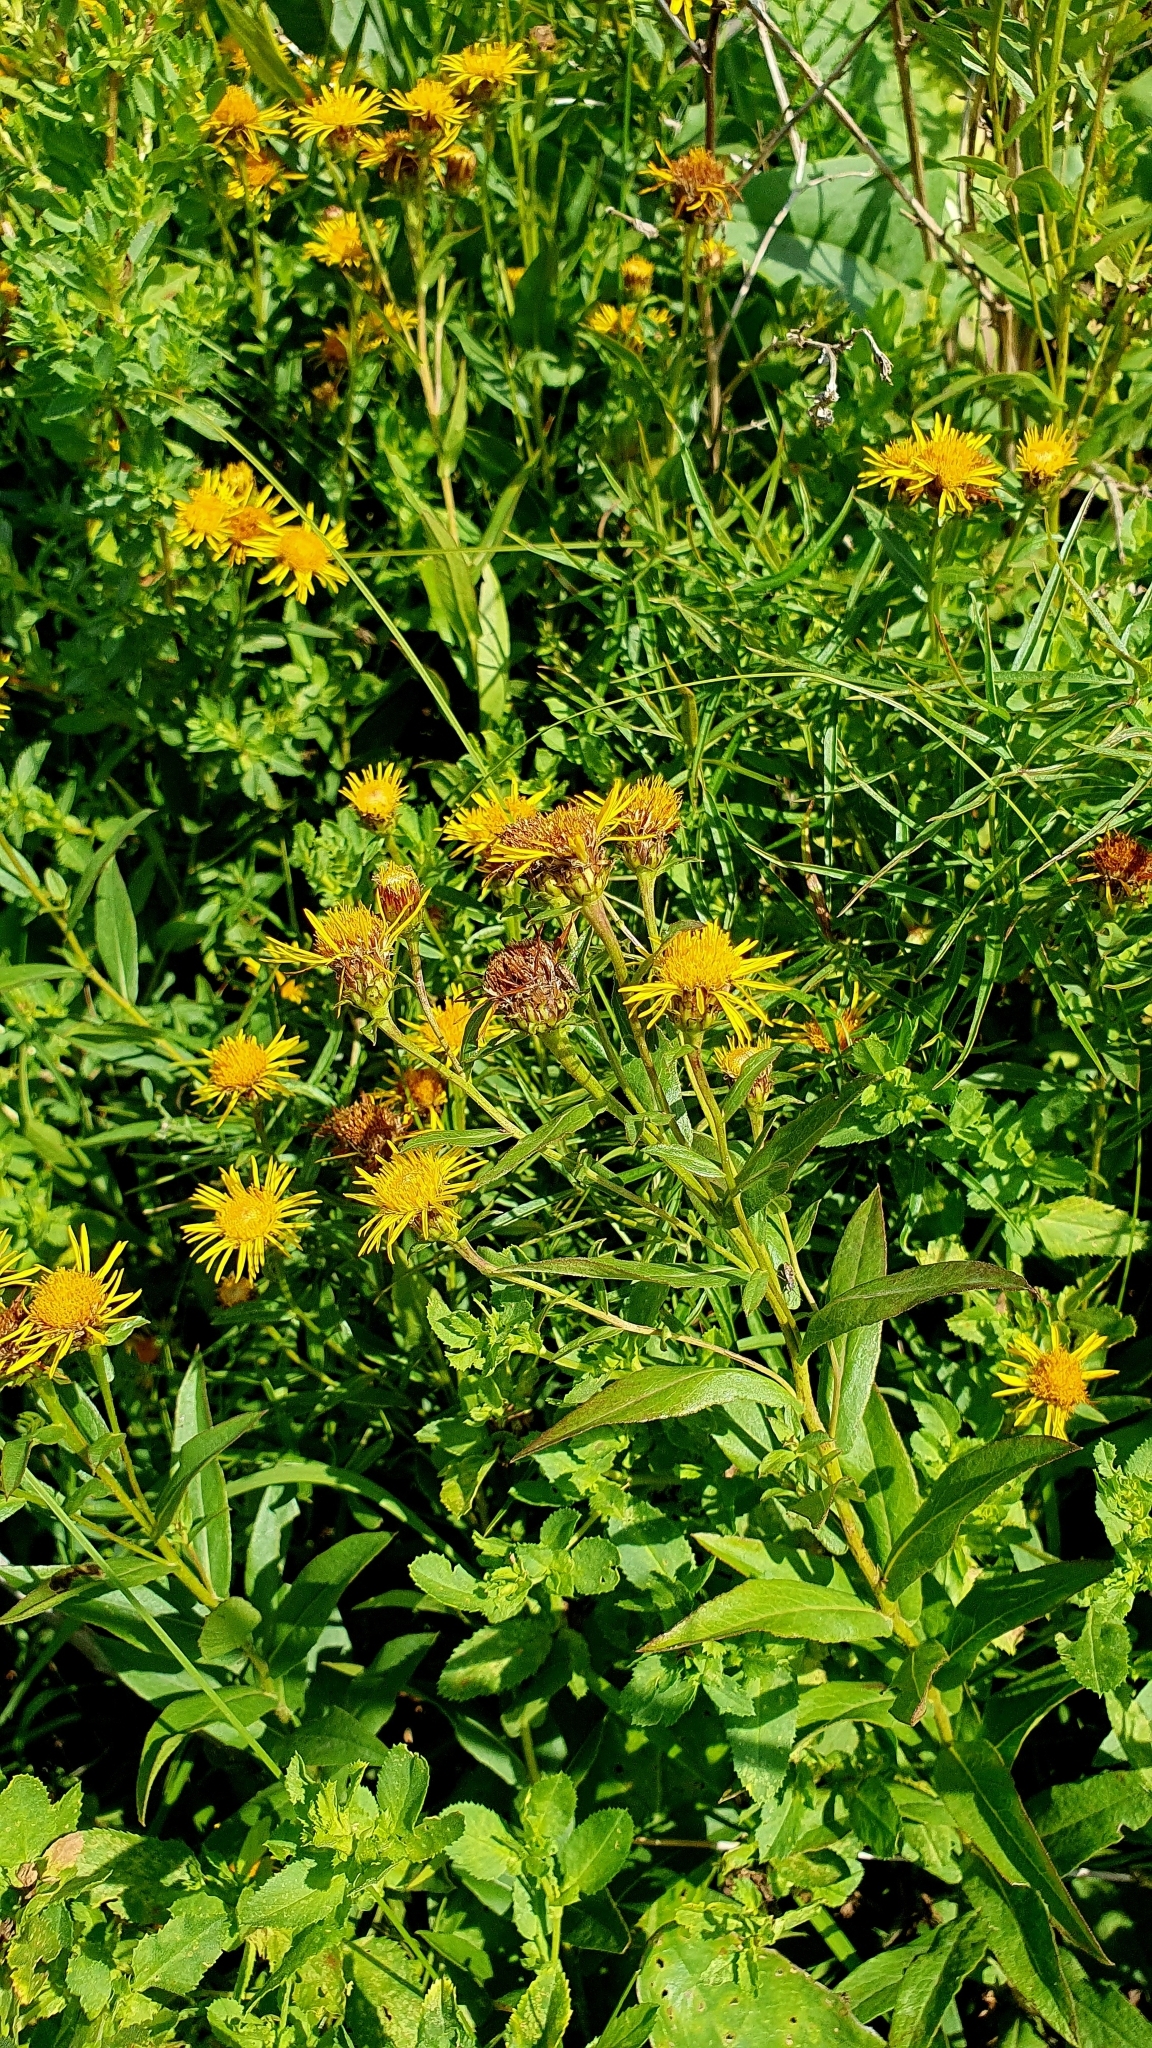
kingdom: Plantae
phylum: Tracheophyta
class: Magnoliopsida
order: Asterales
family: Asteraceae
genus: Pentanema
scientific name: Pentanema salicinum
